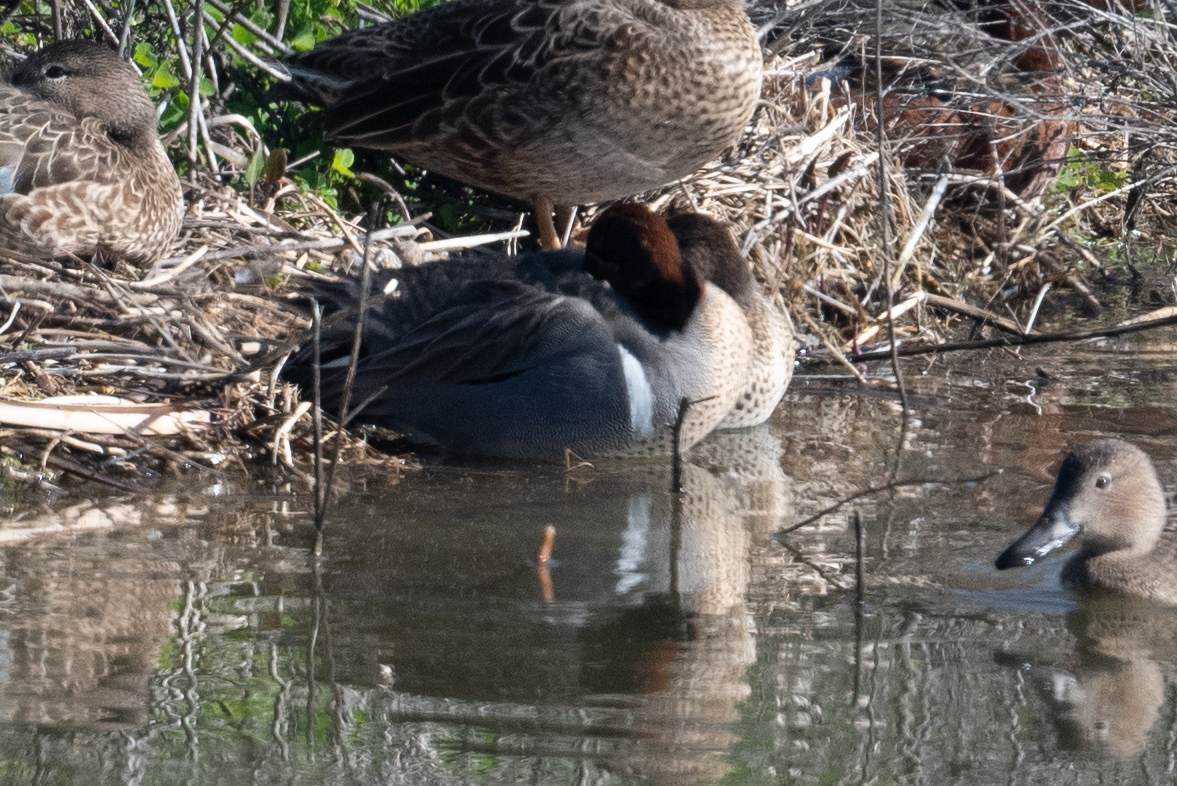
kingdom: Animalia
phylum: Chordata
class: Aves
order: Anseriformes
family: Anatidae
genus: Anas
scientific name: Anas crecca
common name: Eurasian teal
